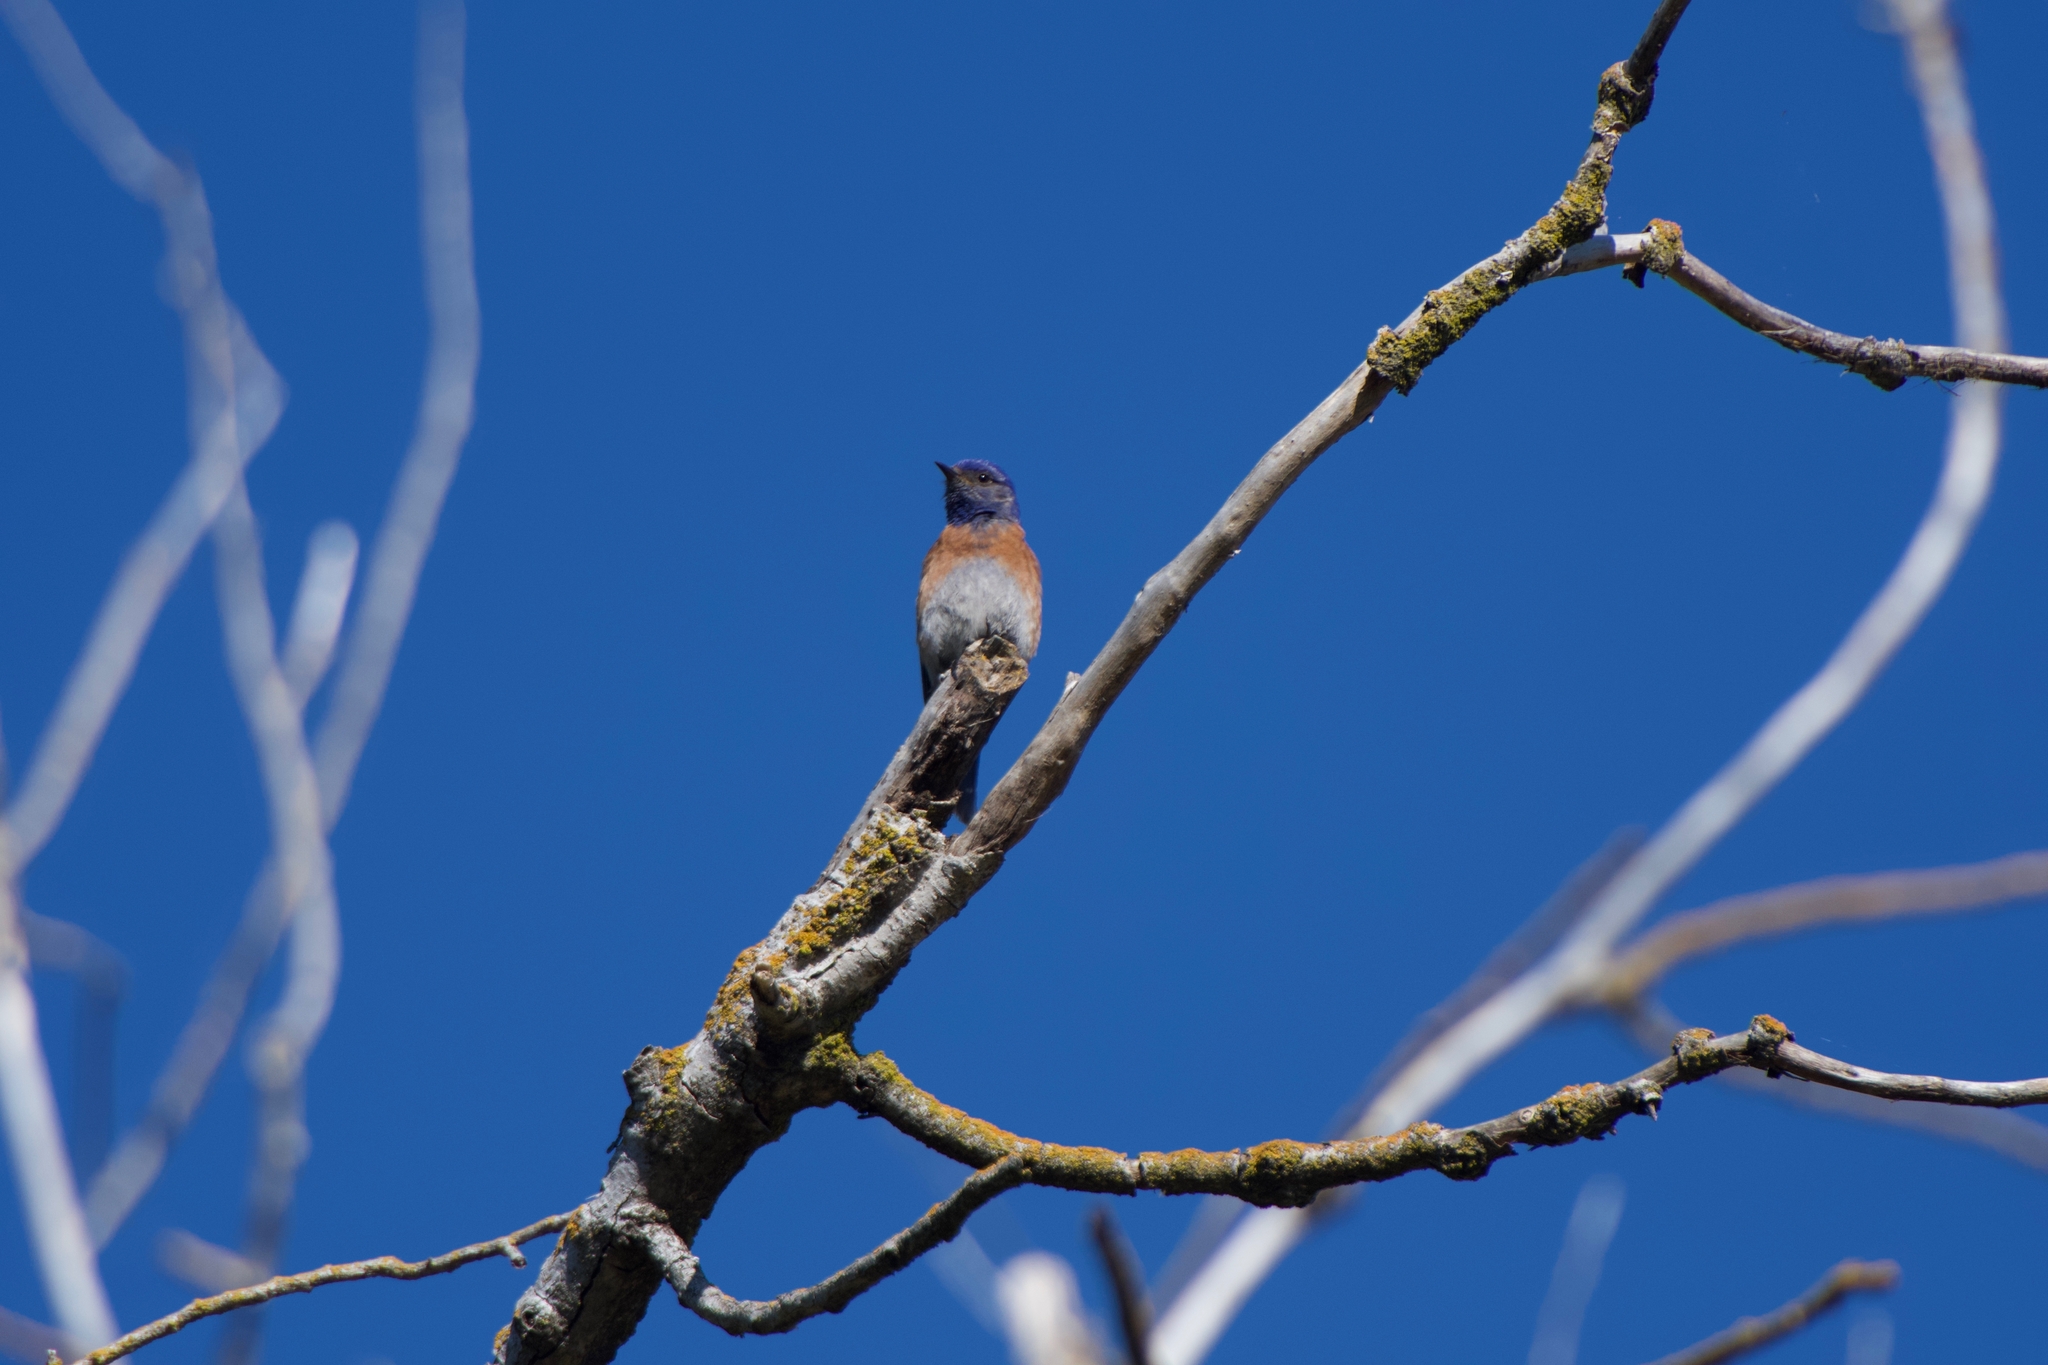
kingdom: Animalia
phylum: Chordata
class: Aves
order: Passeriformes
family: Turdidae
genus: Sialia
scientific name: Sialia mexicana
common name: Western bluebird
